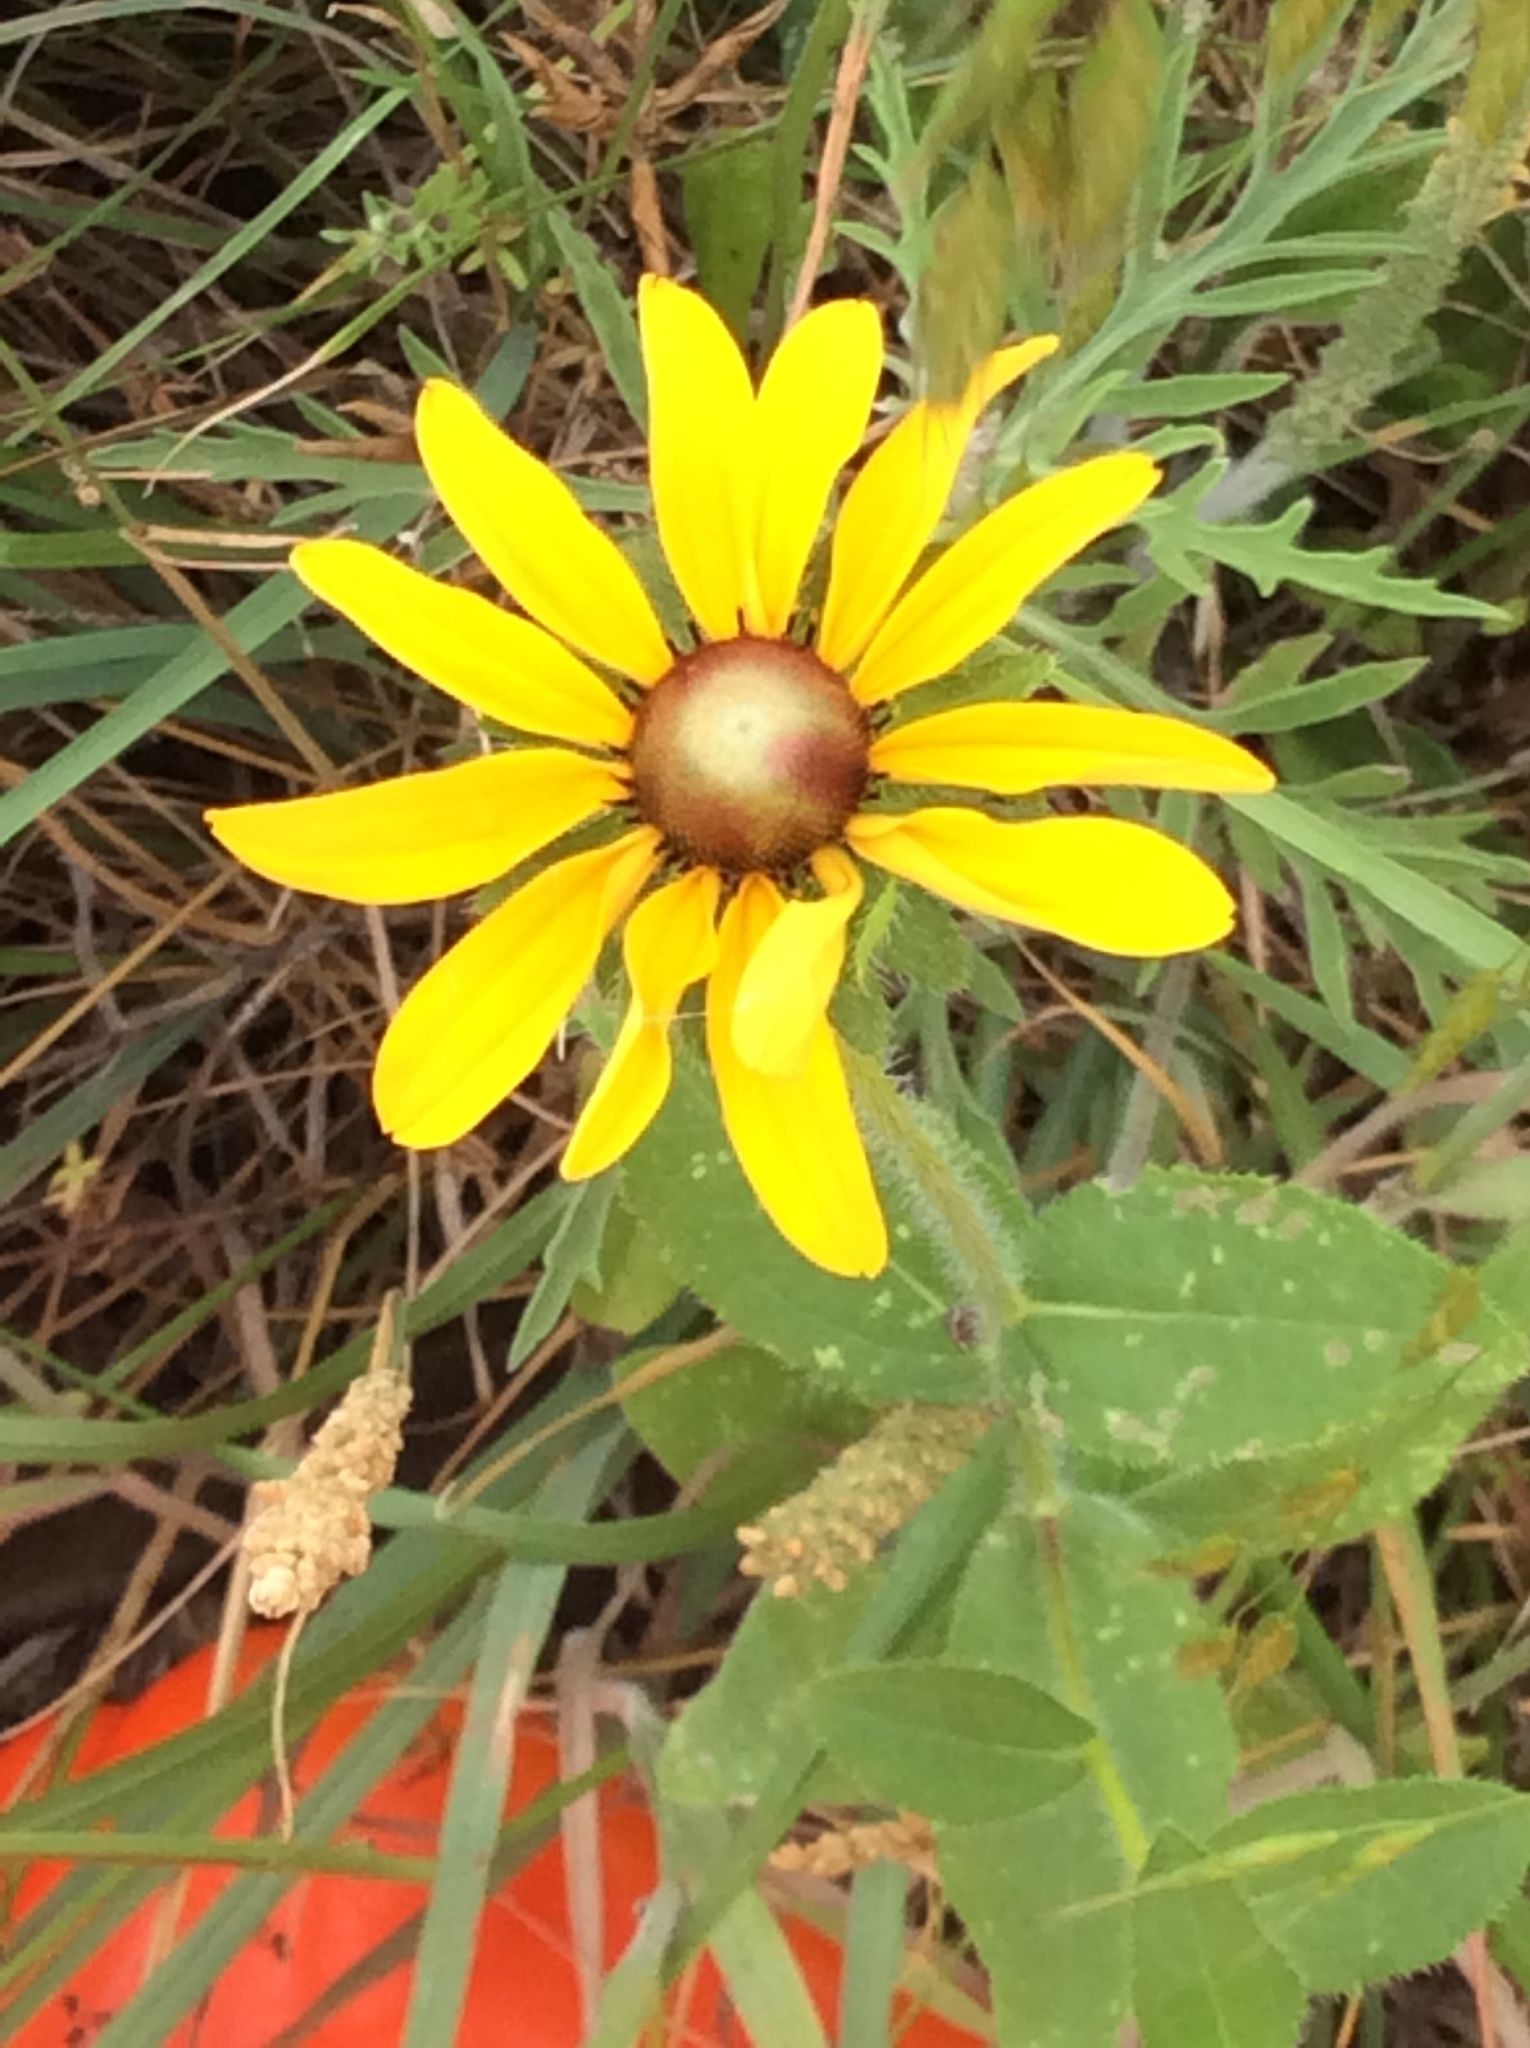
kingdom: Plantae
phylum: Tracheophyta
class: Magnoliopsida
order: Asterales
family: Asteraceae
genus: Rudbeckia
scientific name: Rudbeckia hirta
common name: Black-eyed-susan
